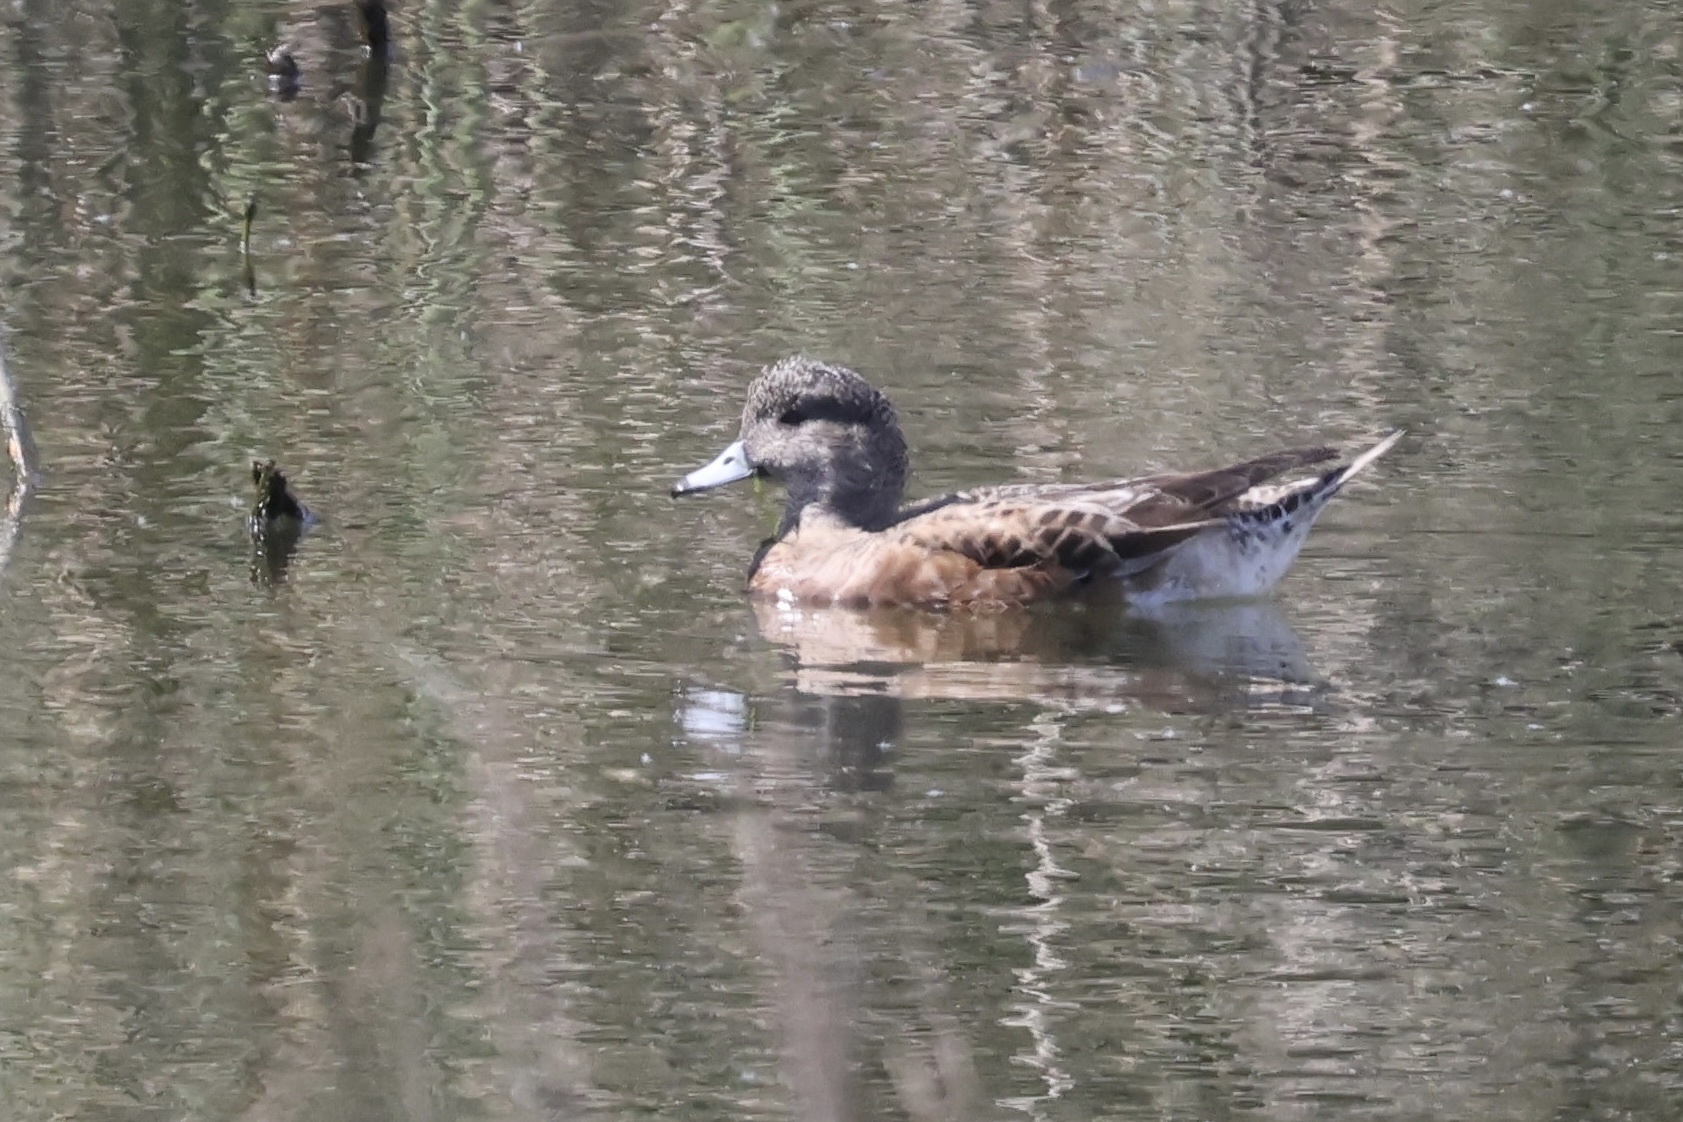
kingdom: Animalia
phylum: Chordata
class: Aves
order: Anseriformes
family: Anatidae
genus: Mareca
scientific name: Mareca americana
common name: American wigeon
